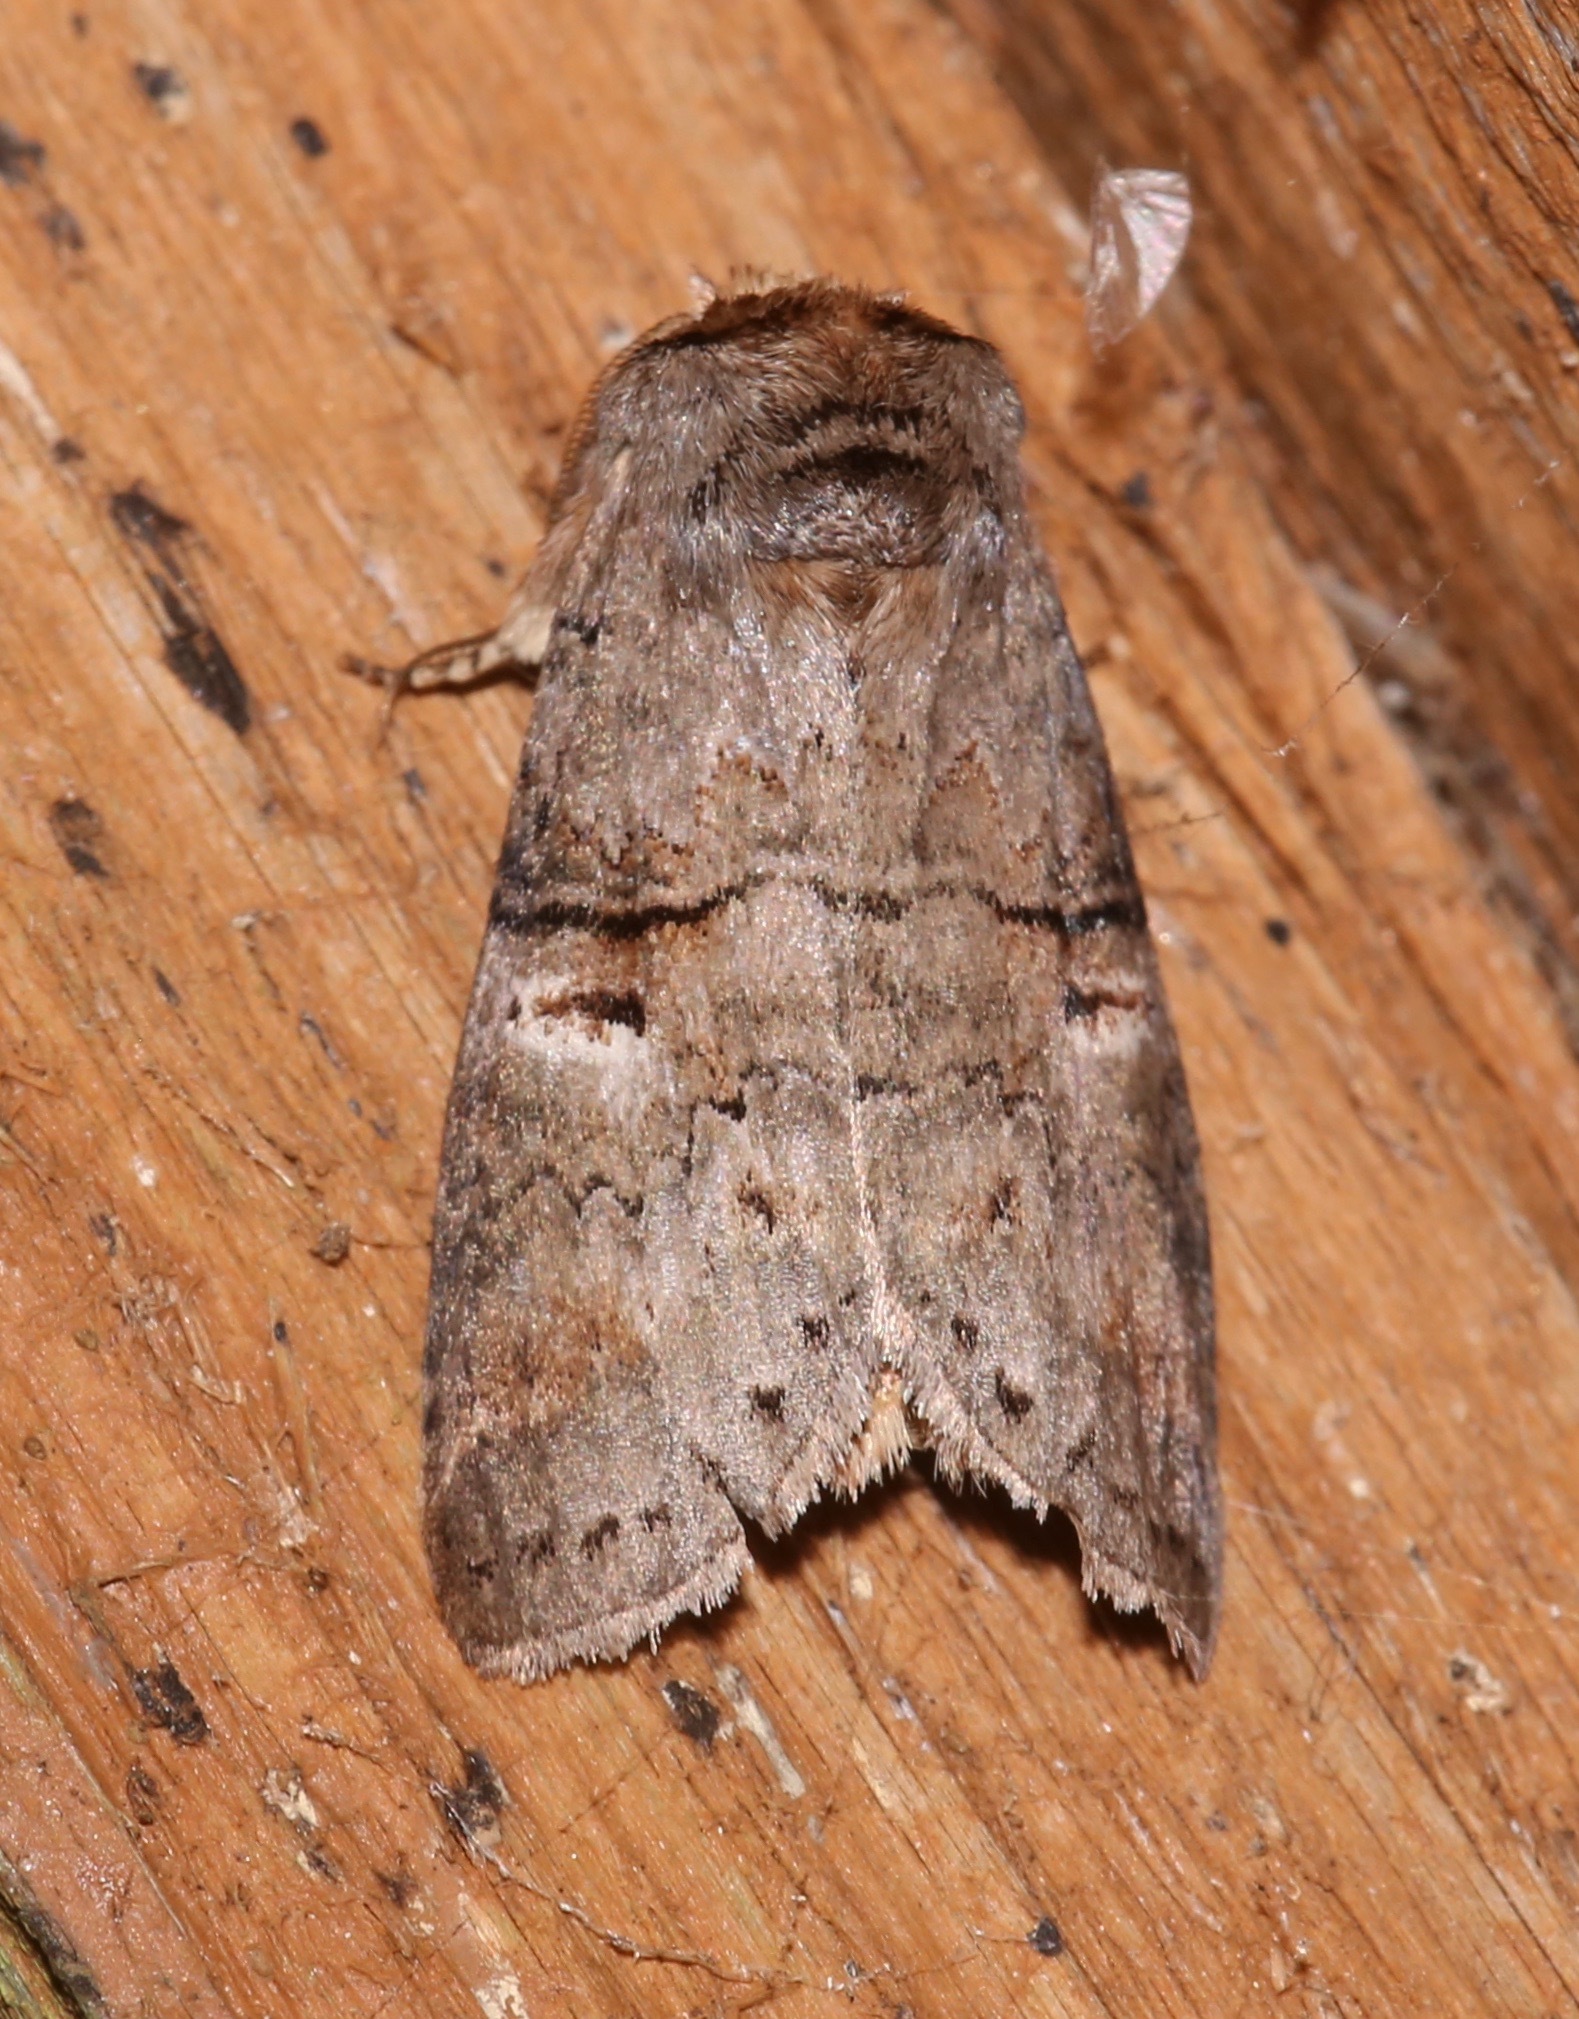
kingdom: Animalia
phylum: Arthropoda
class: Insecta
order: Lepidoptera
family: Notodontidae
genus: Ellida
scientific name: Ellida caniplaga
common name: Linden prominent
